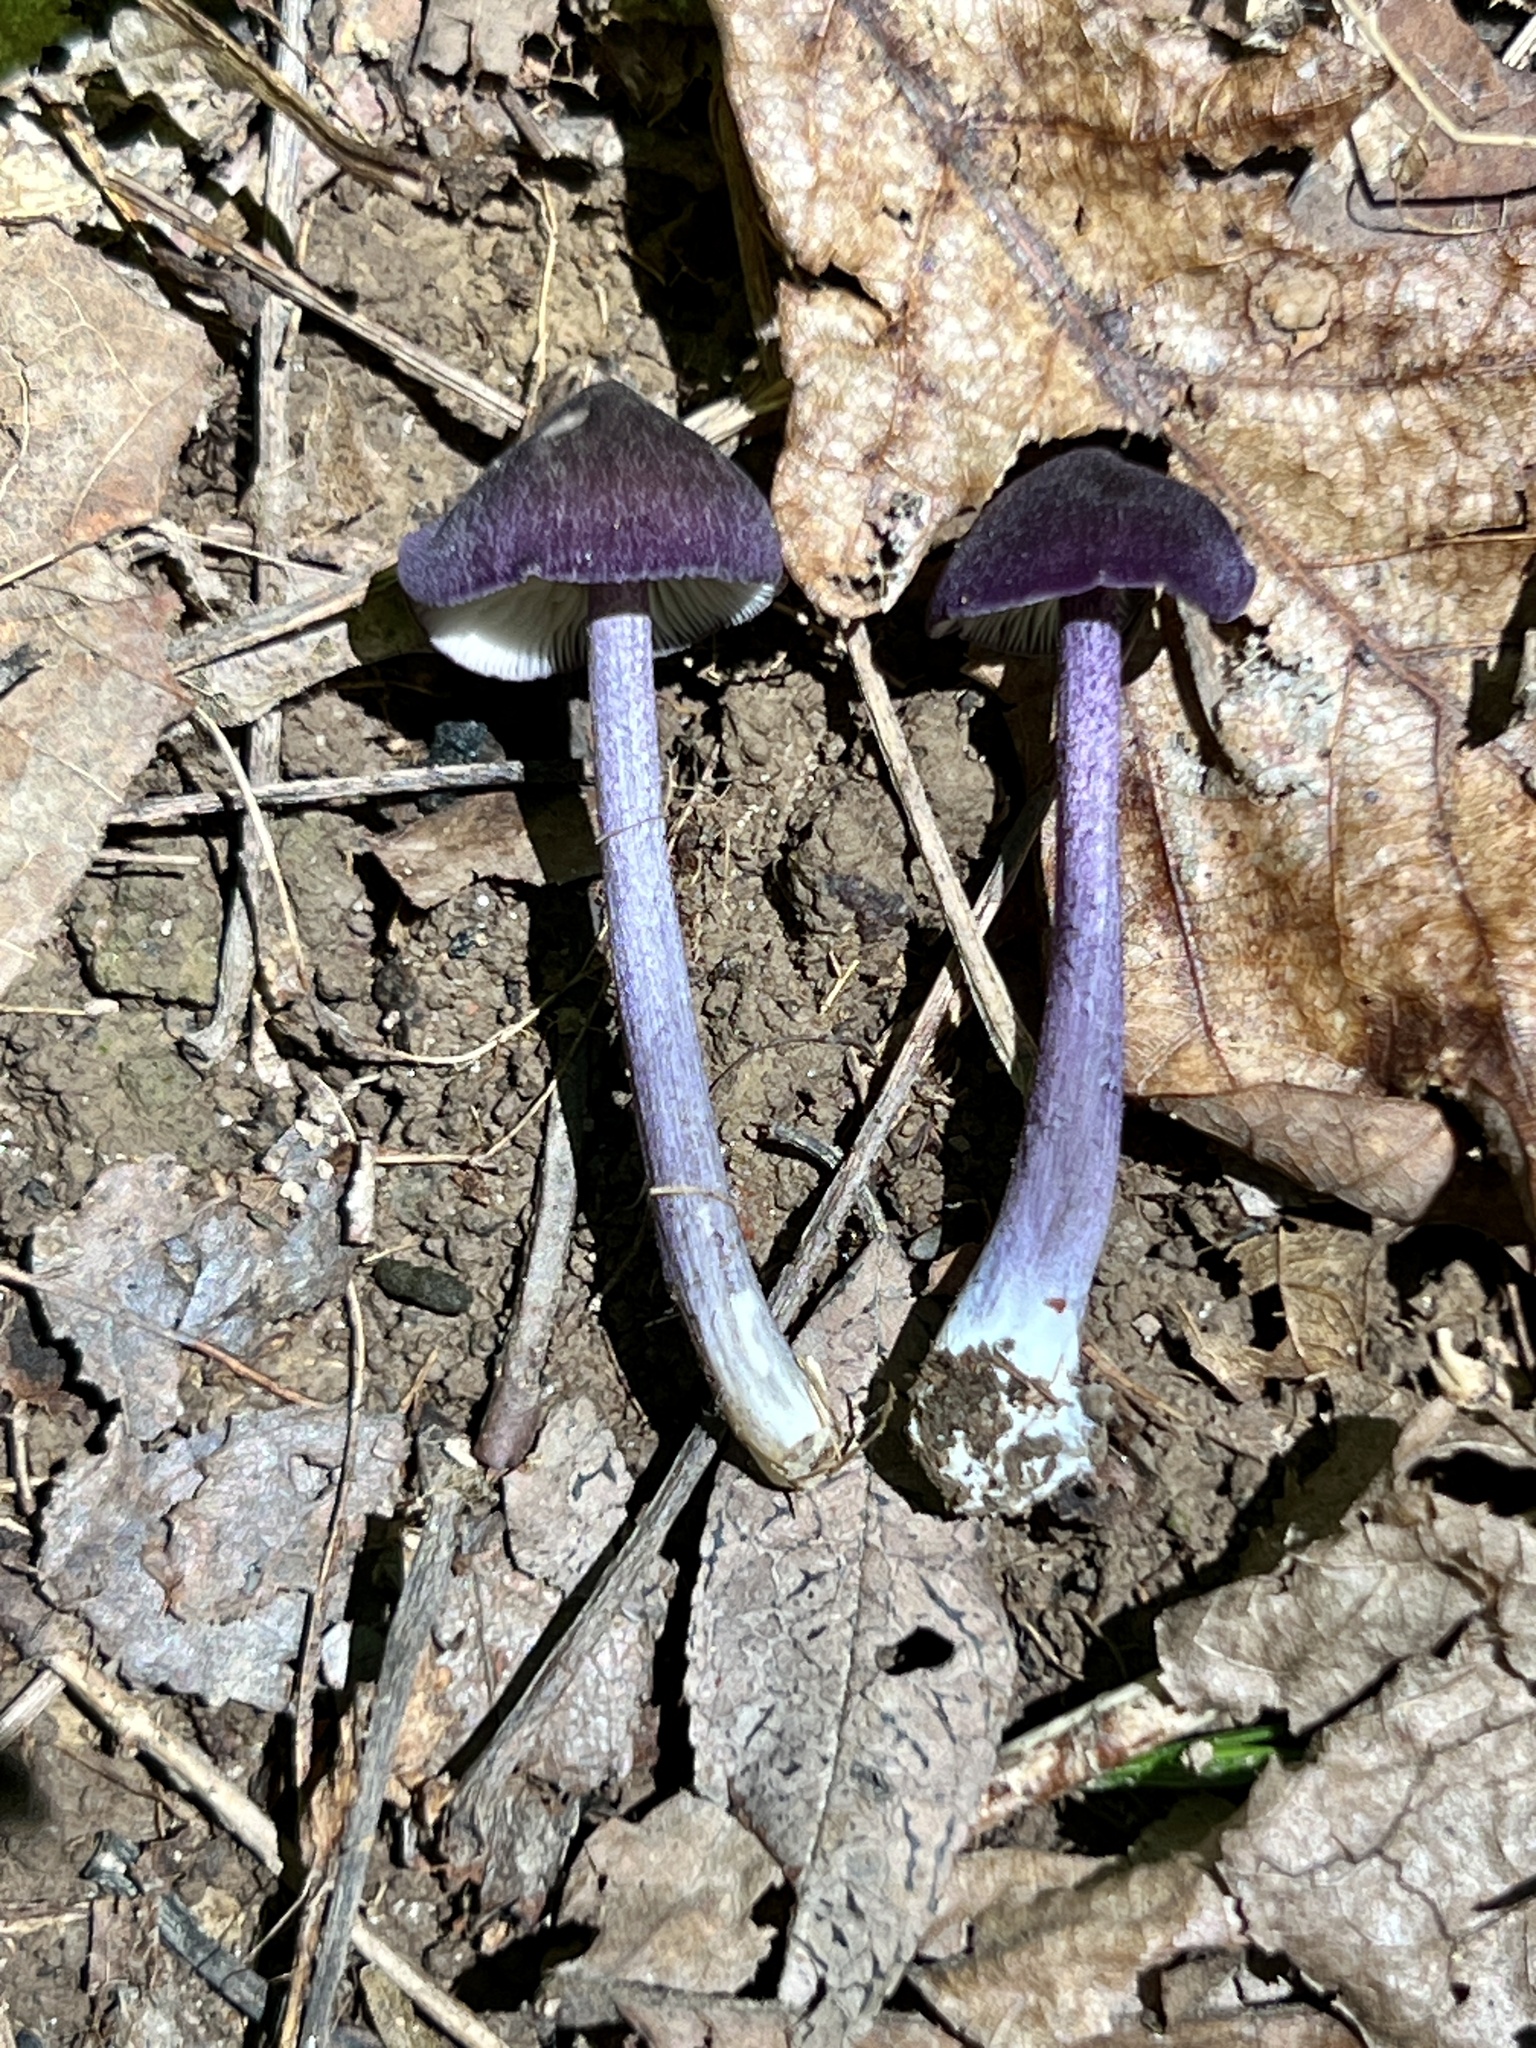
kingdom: Fungi
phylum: Basidiomycota
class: Agaricomycetes
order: Agaricales
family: Entolomataceae
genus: Entoloma
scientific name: Entoloma cyaneum
